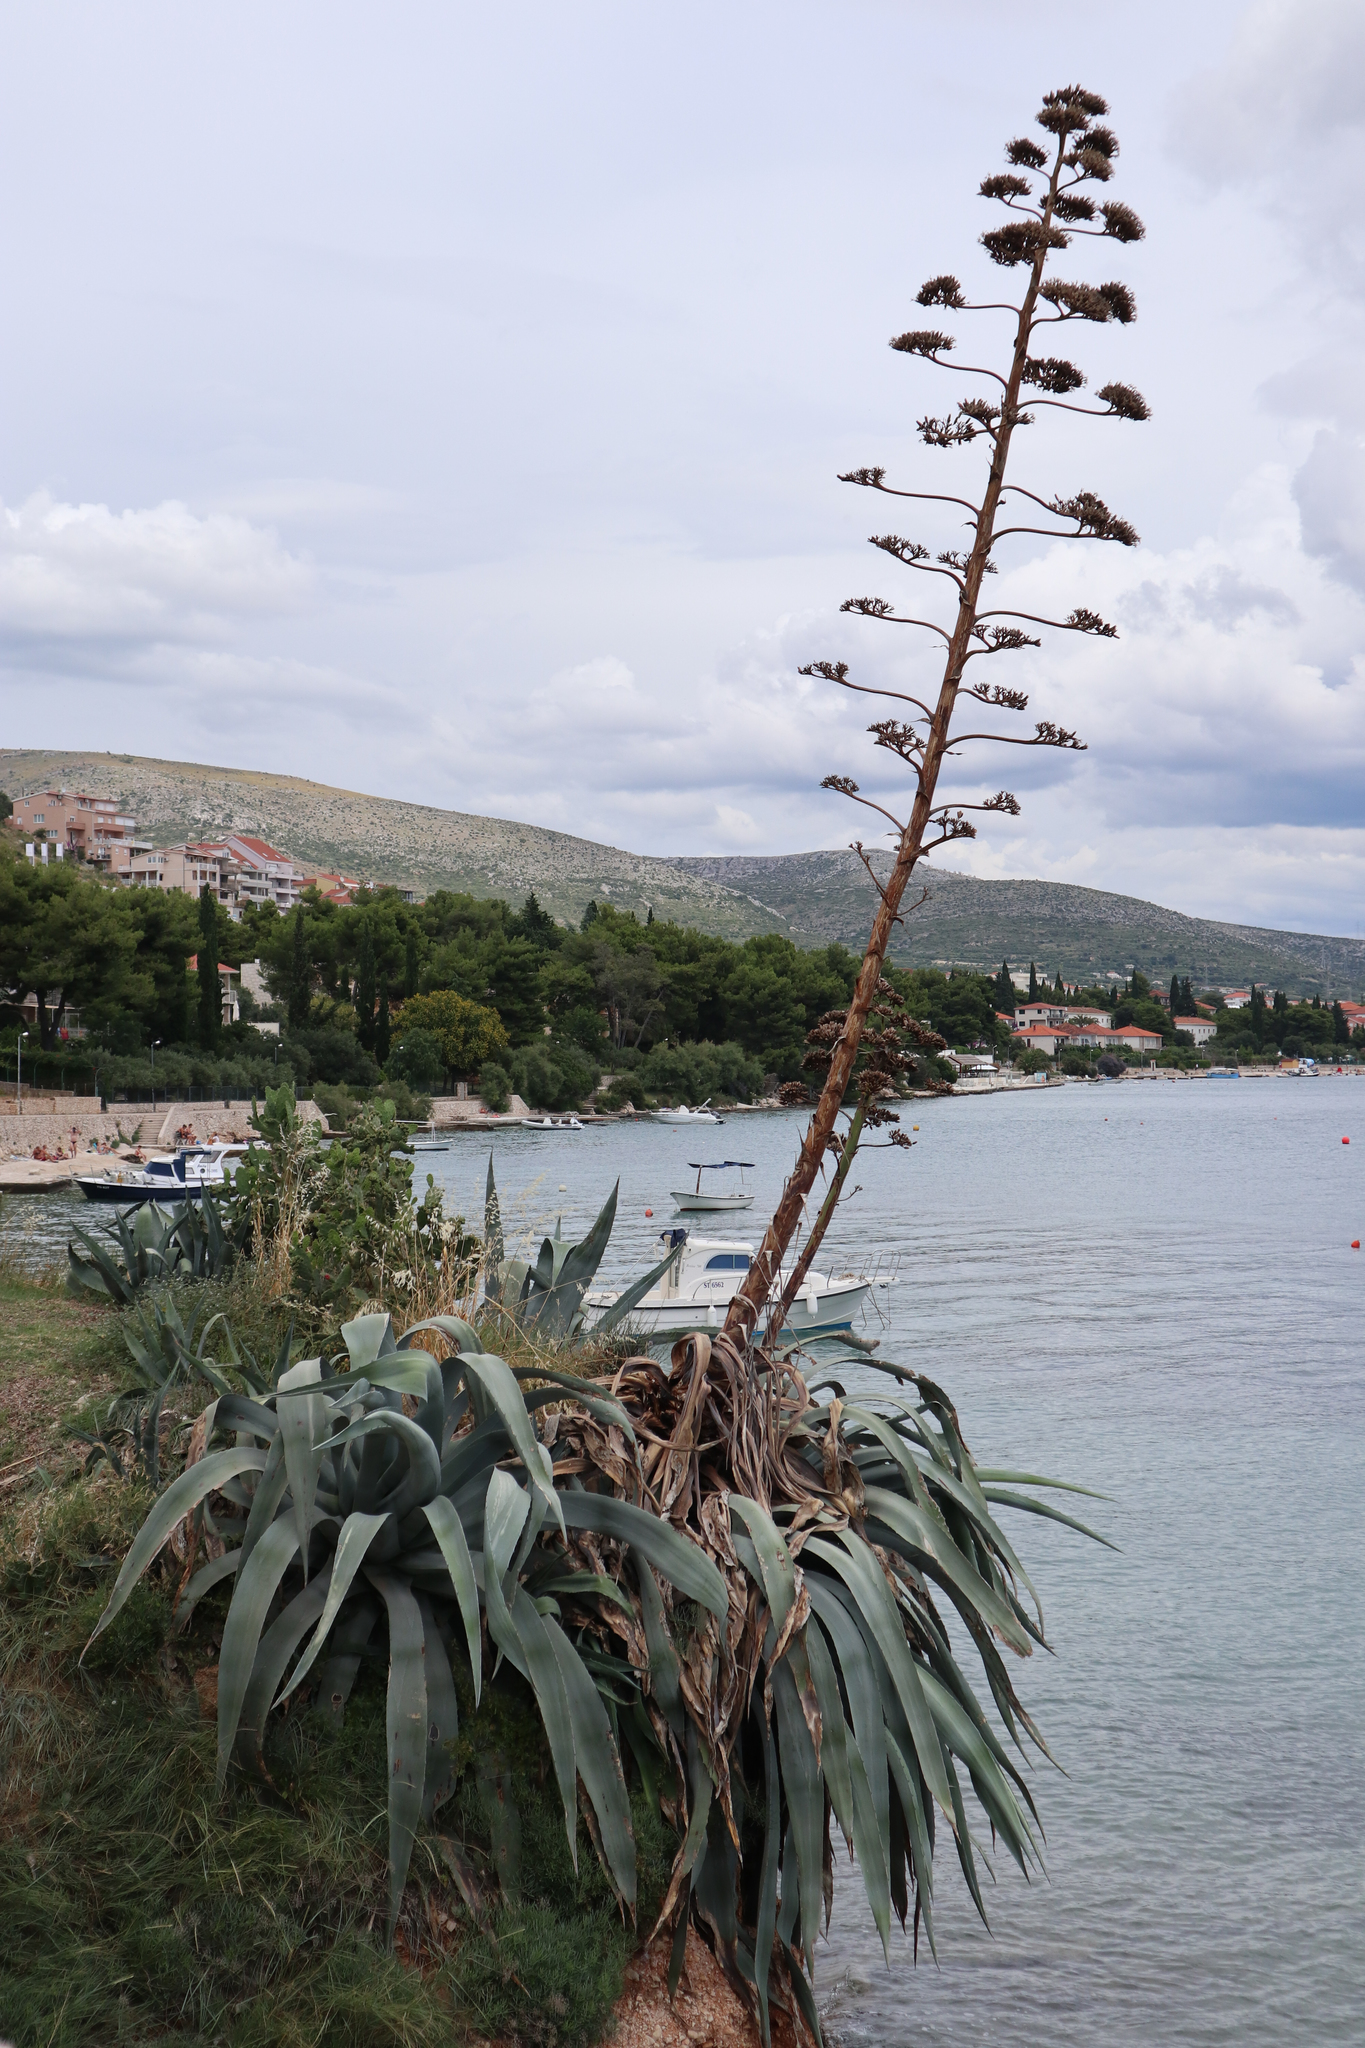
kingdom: Plantae
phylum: Tracheophyta
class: Liliopsida
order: Asparagales
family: Asparagaceae
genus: Agave
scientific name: Agave americana
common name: Centuryplant
